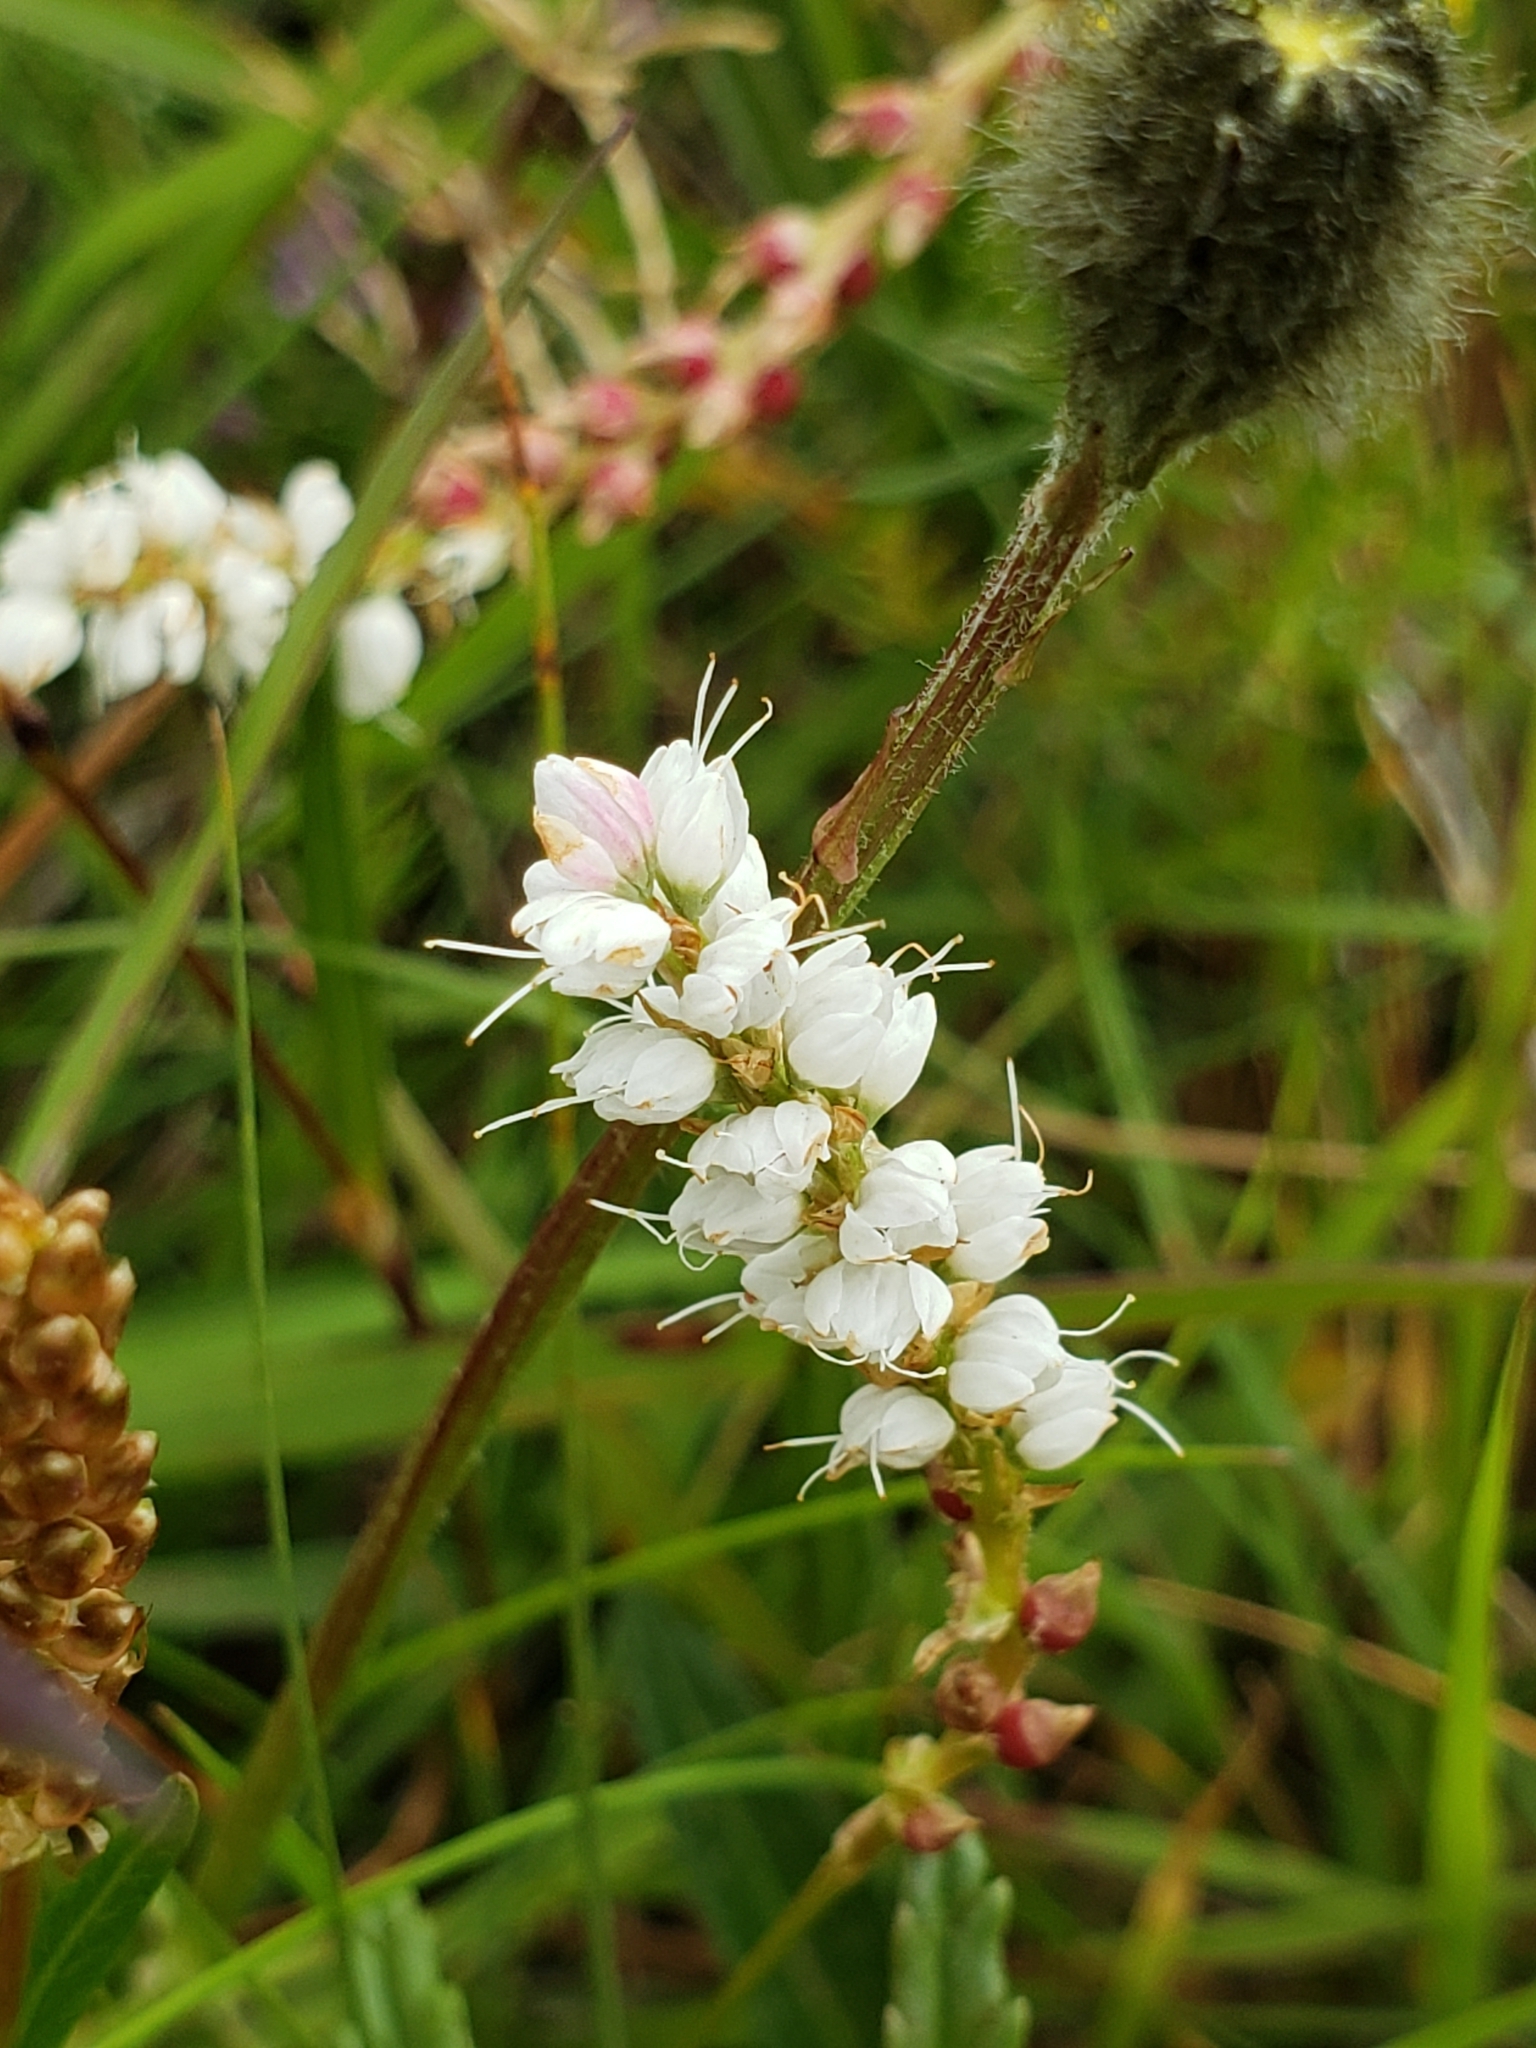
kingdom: Plantae
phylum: Tracheophyta
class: Magnoliopsida
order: Caryophyllales
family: Polygonaceae
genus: Bistorta
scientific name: Bistorta vivipara
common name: Alpine bistort
